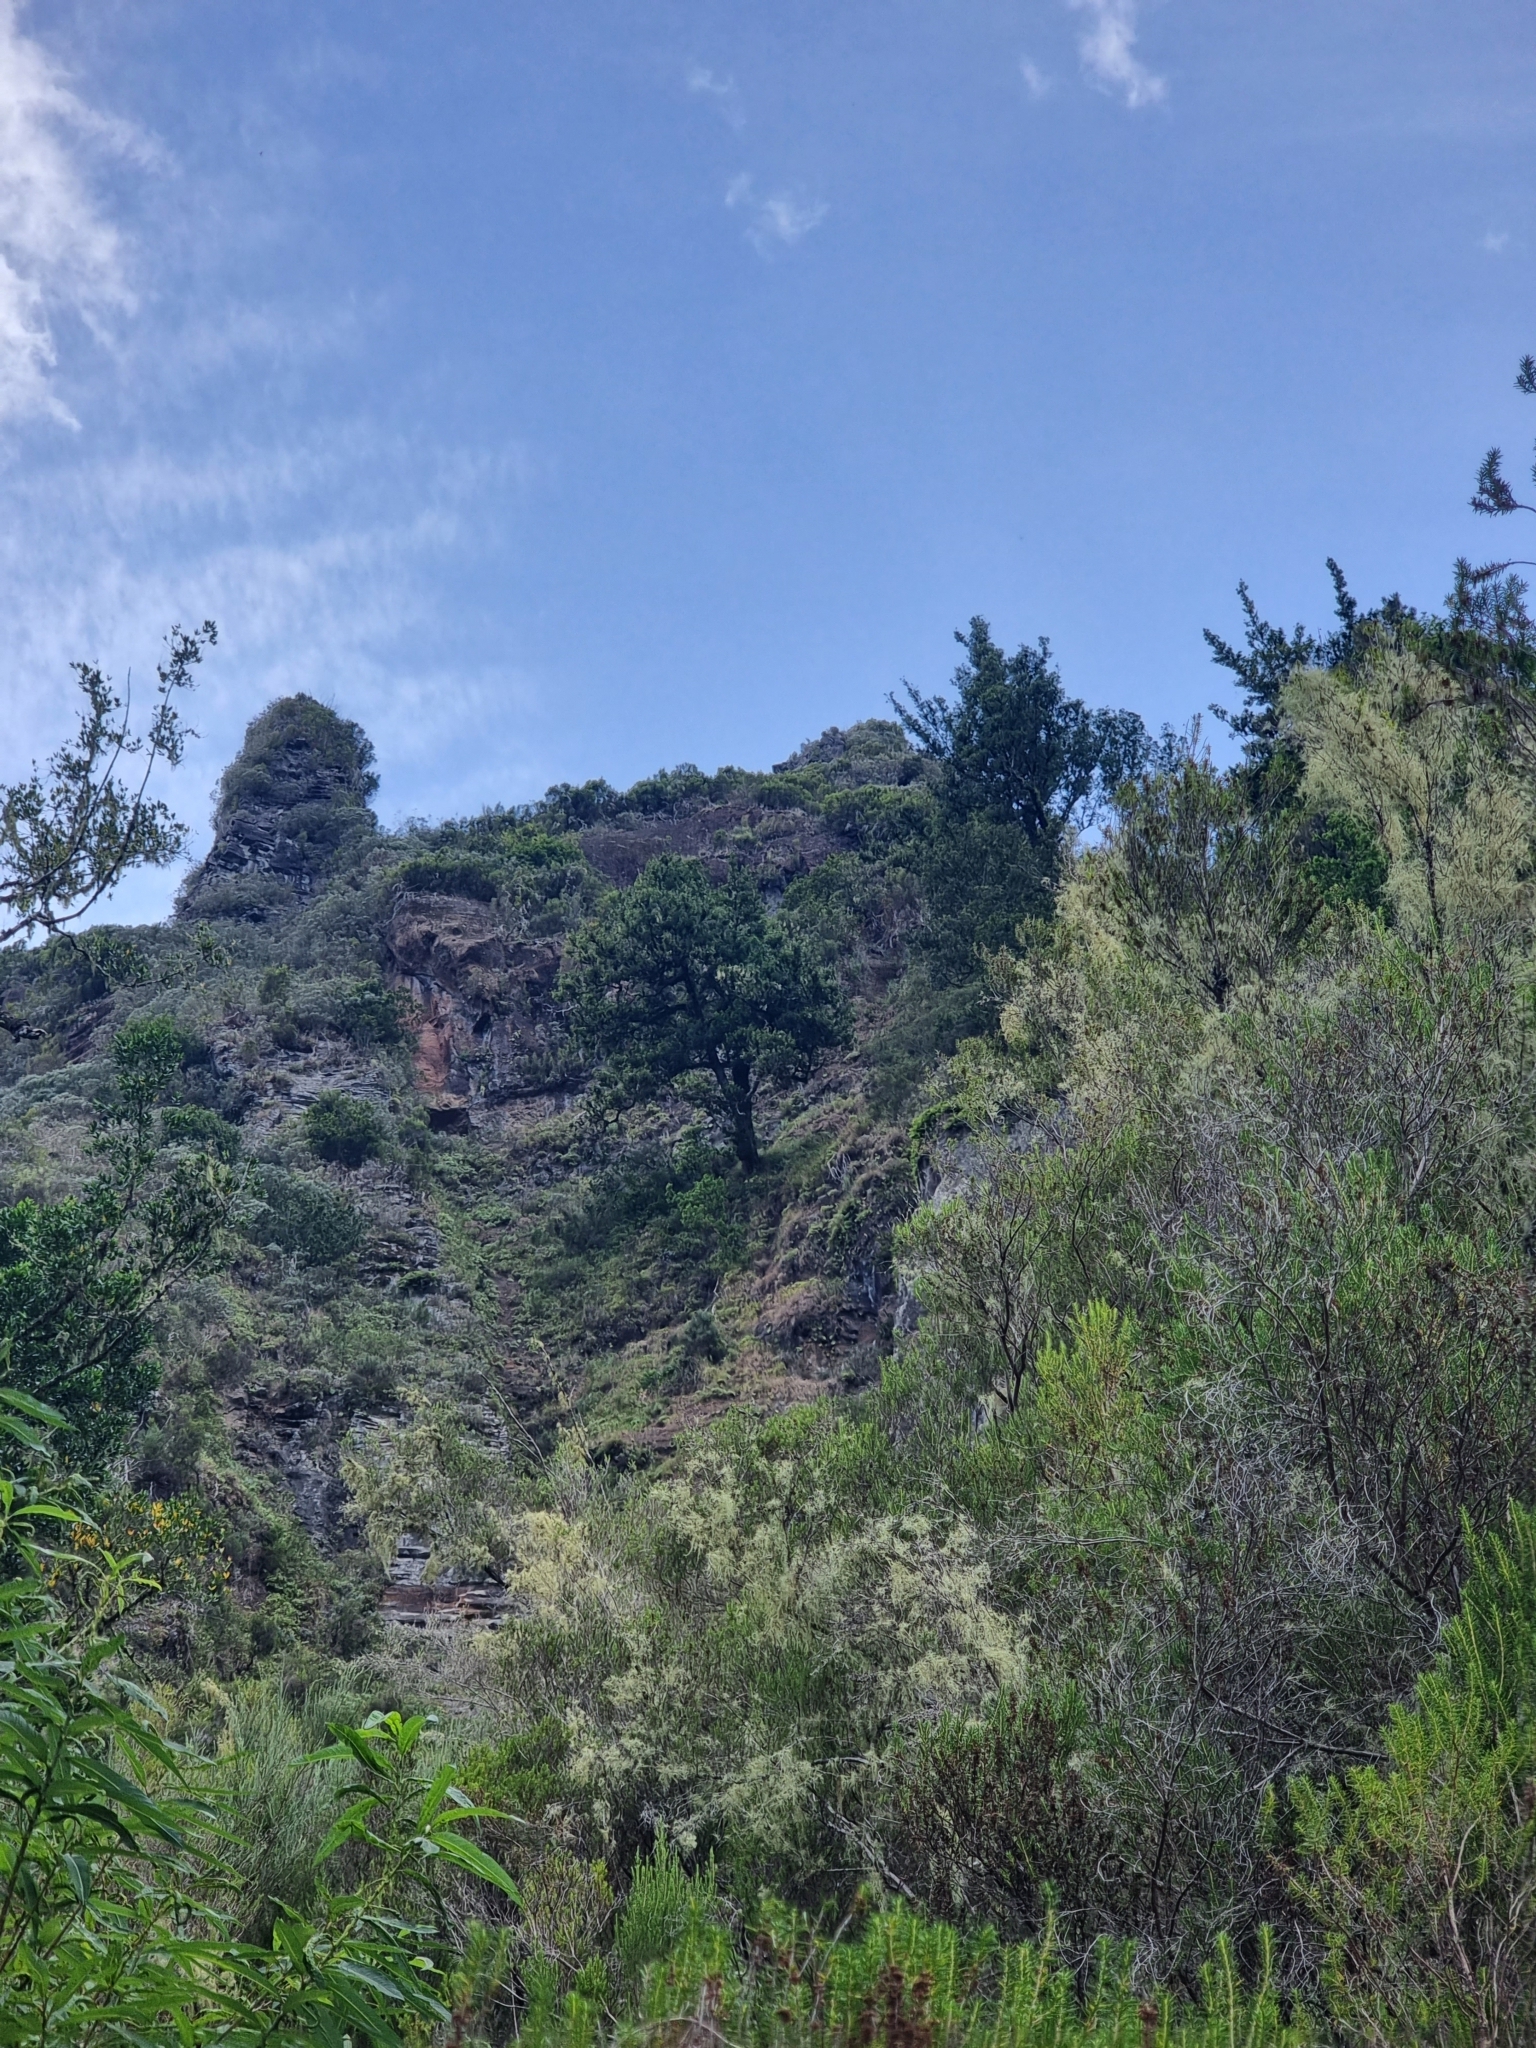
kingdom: Plantae
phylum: Tracheophyta
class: Magnoliopsida
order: Laurales
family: Lauraceae
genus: Mespilodaphne
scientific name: Mespilodaphne foetens
